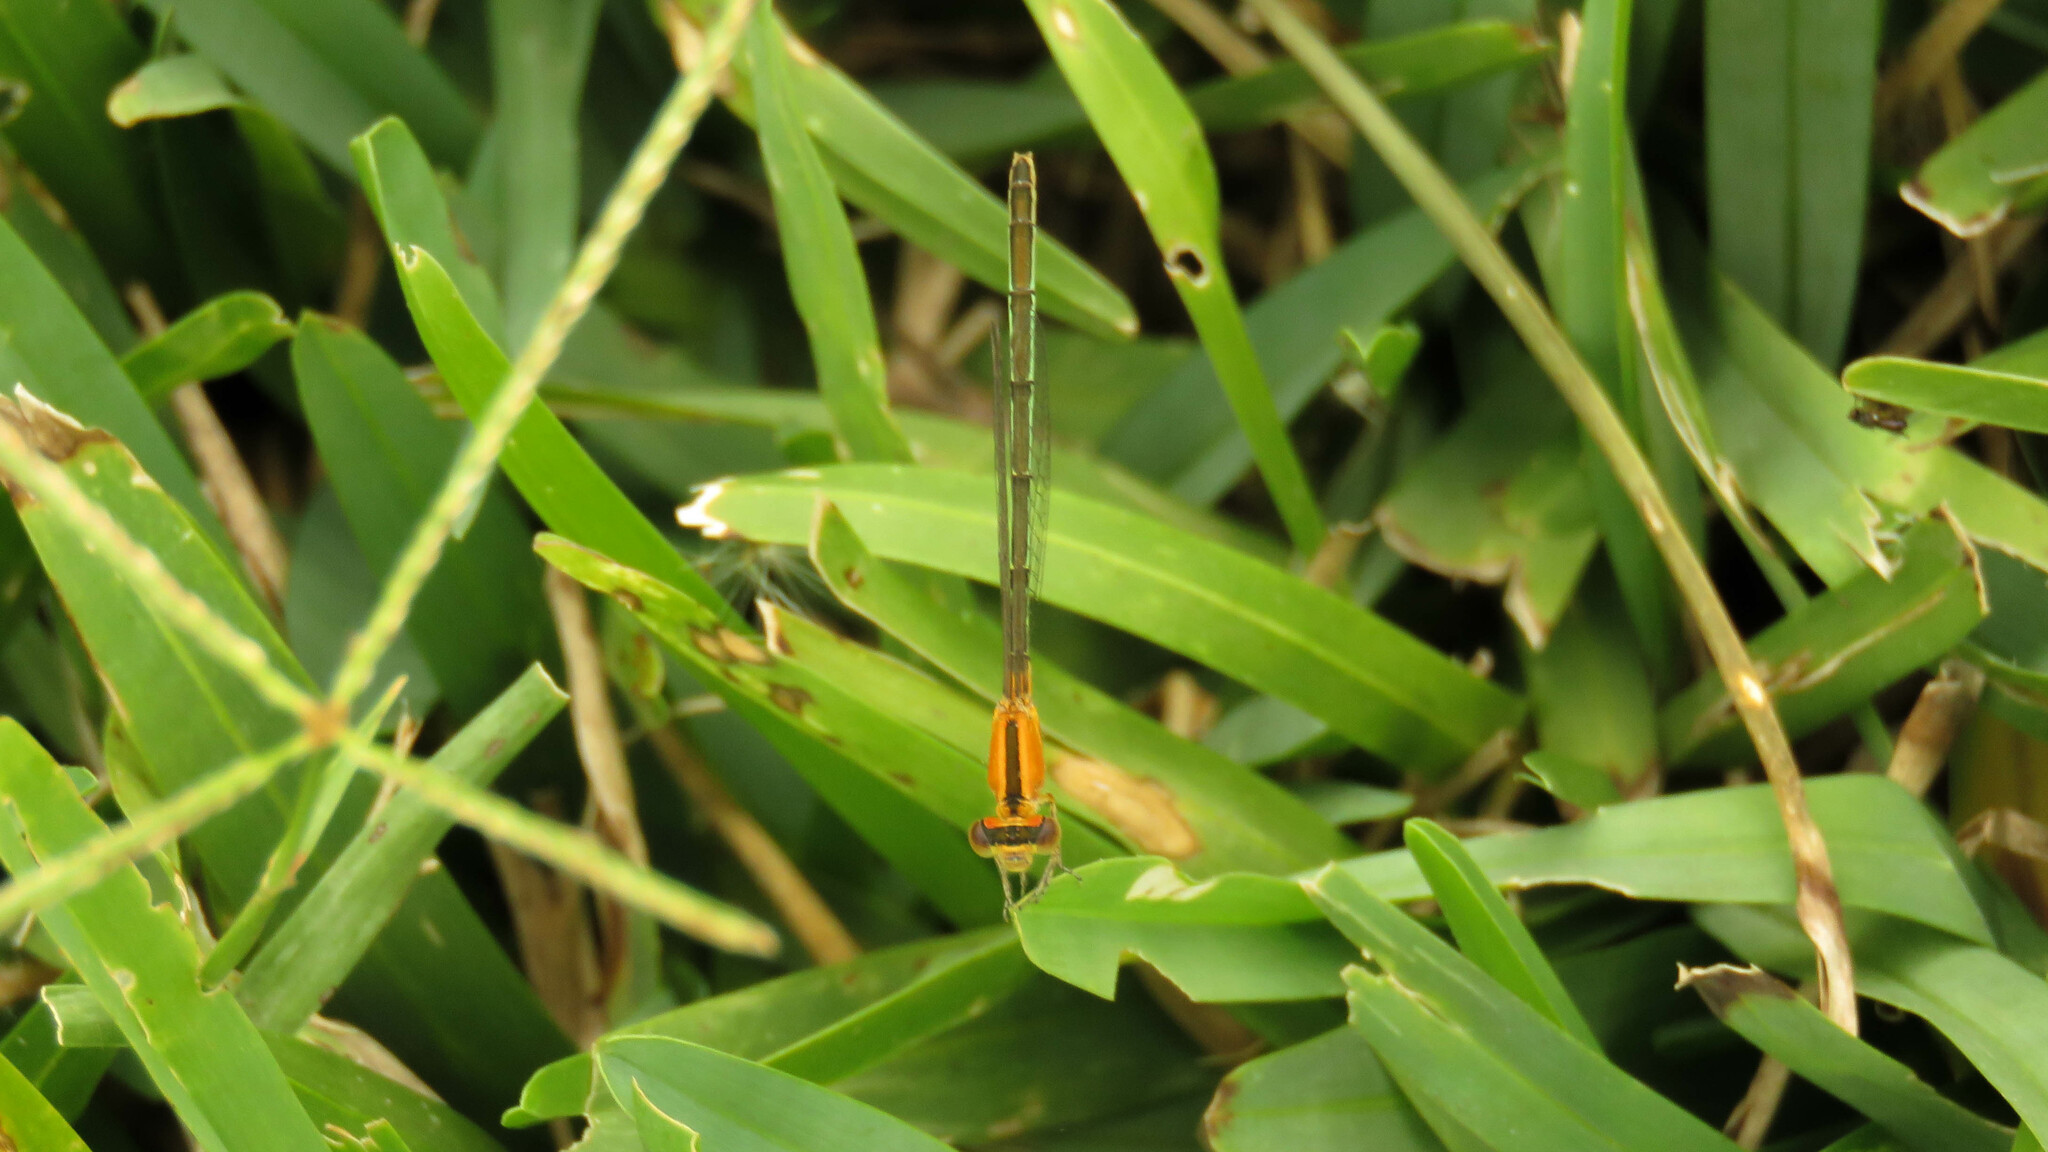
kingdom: Animalia
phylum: Arthropoda
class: Insecta
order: Odonata
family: Coenagrionidae
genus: Ischnura
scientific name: Ischnura fluviatilis
